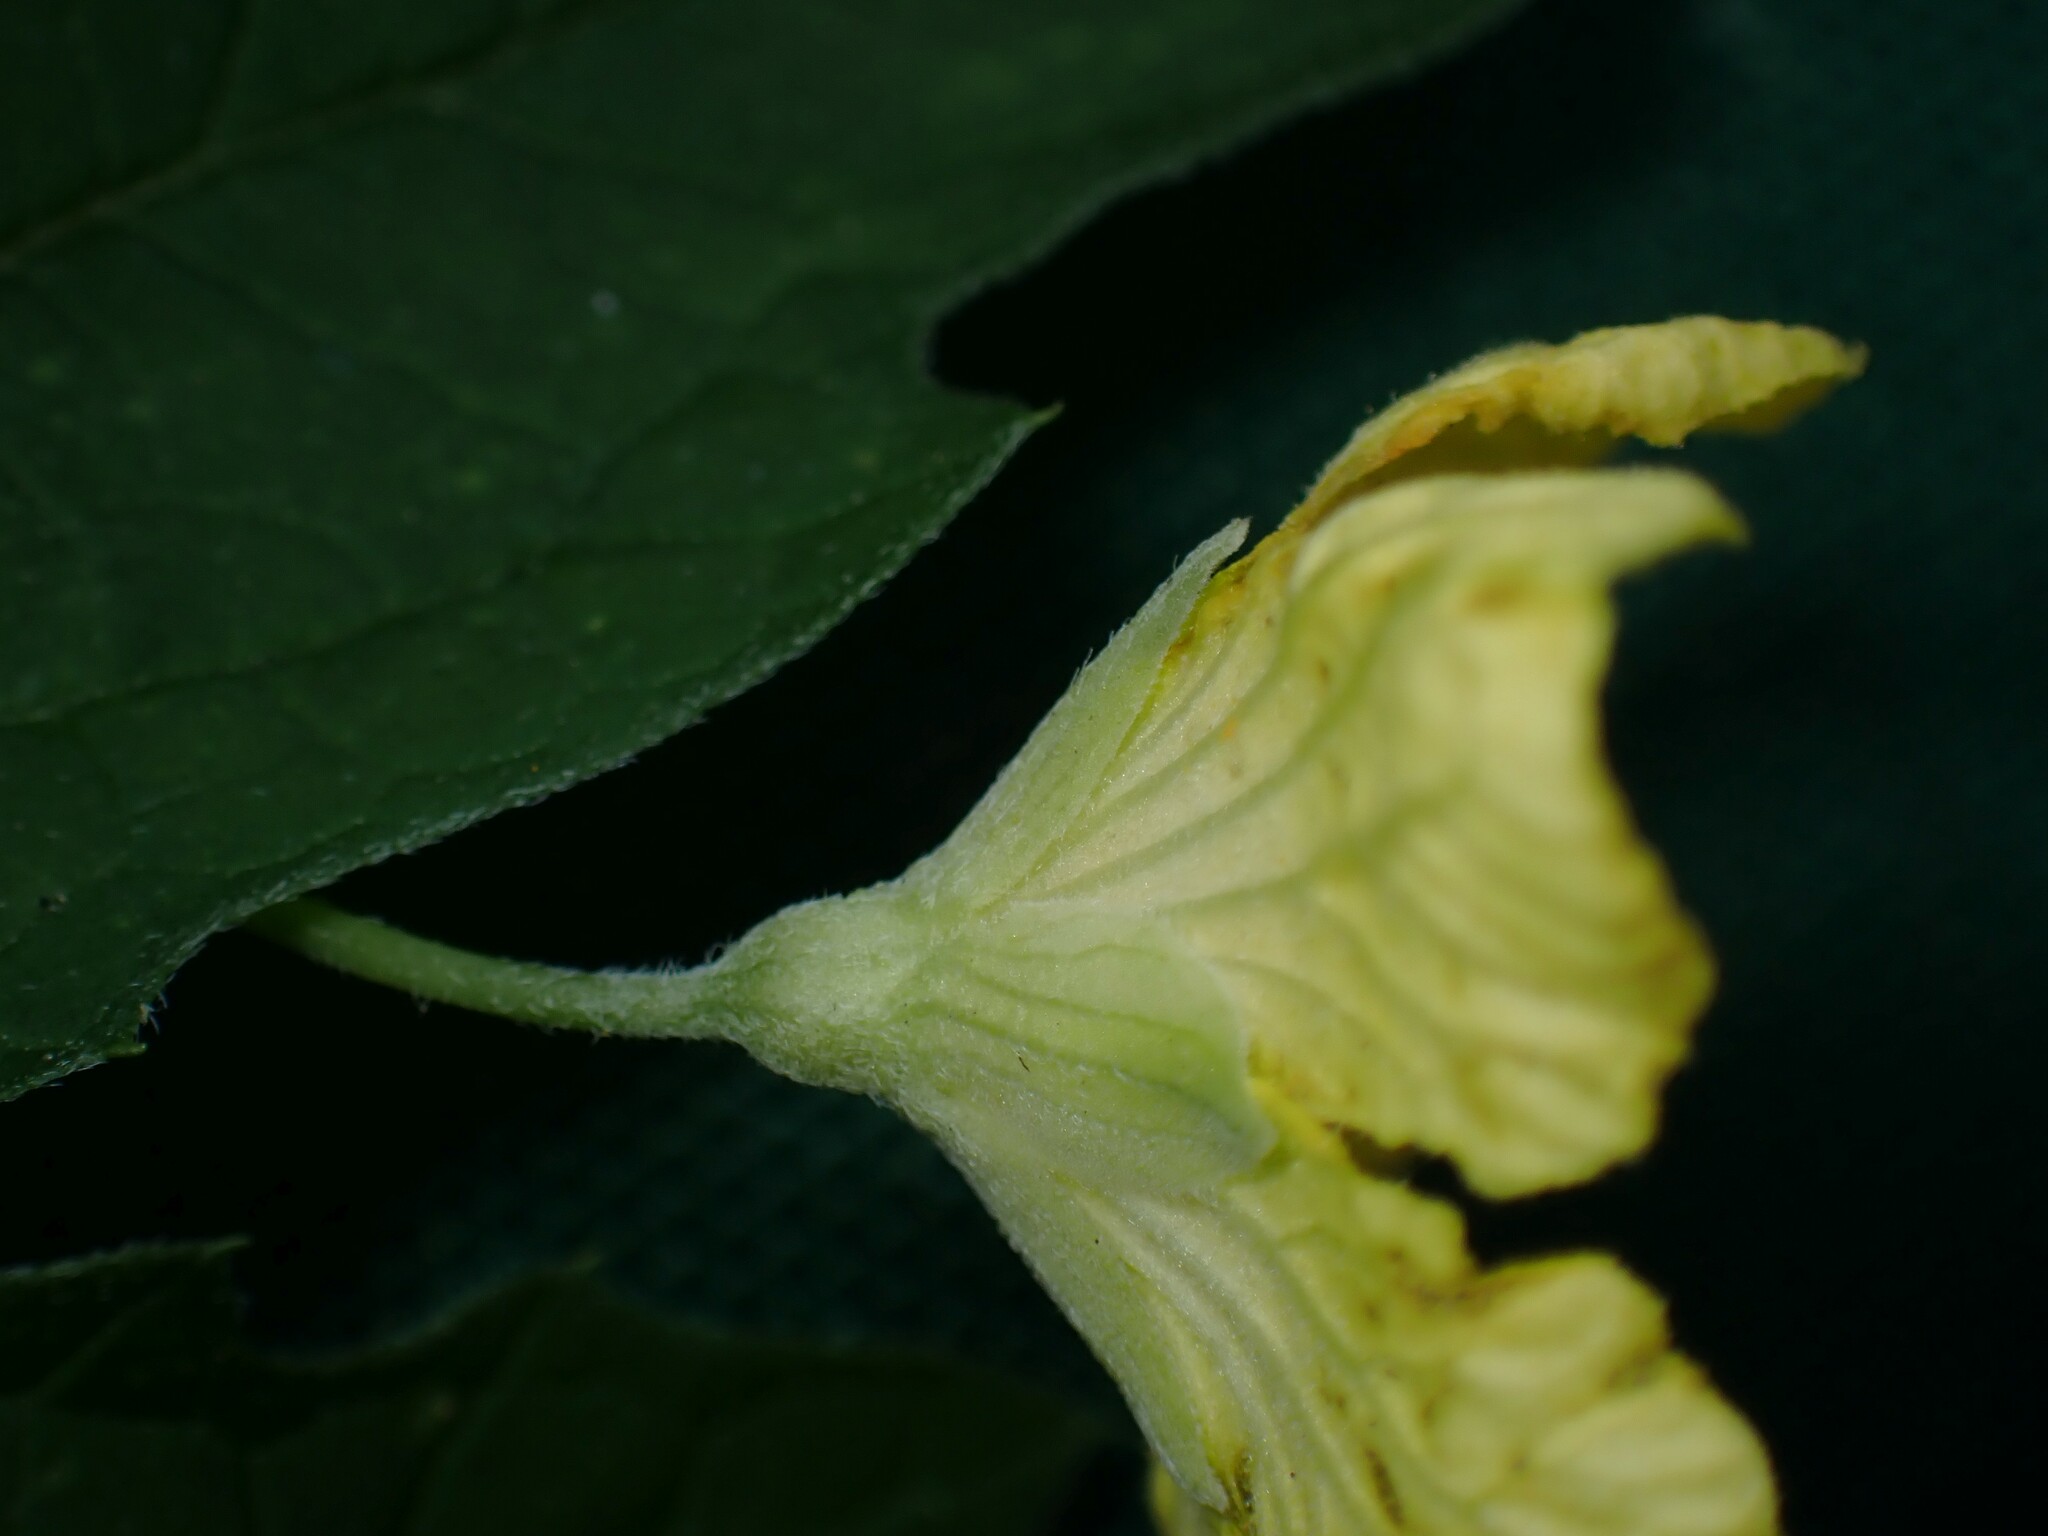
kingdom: Plantae
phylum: Tracheophyta
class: Magnoliopsida
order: Cucurbitales
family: Cucurbitaceae
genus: Momordica
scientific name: Momordica charantia
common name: Balsampear
